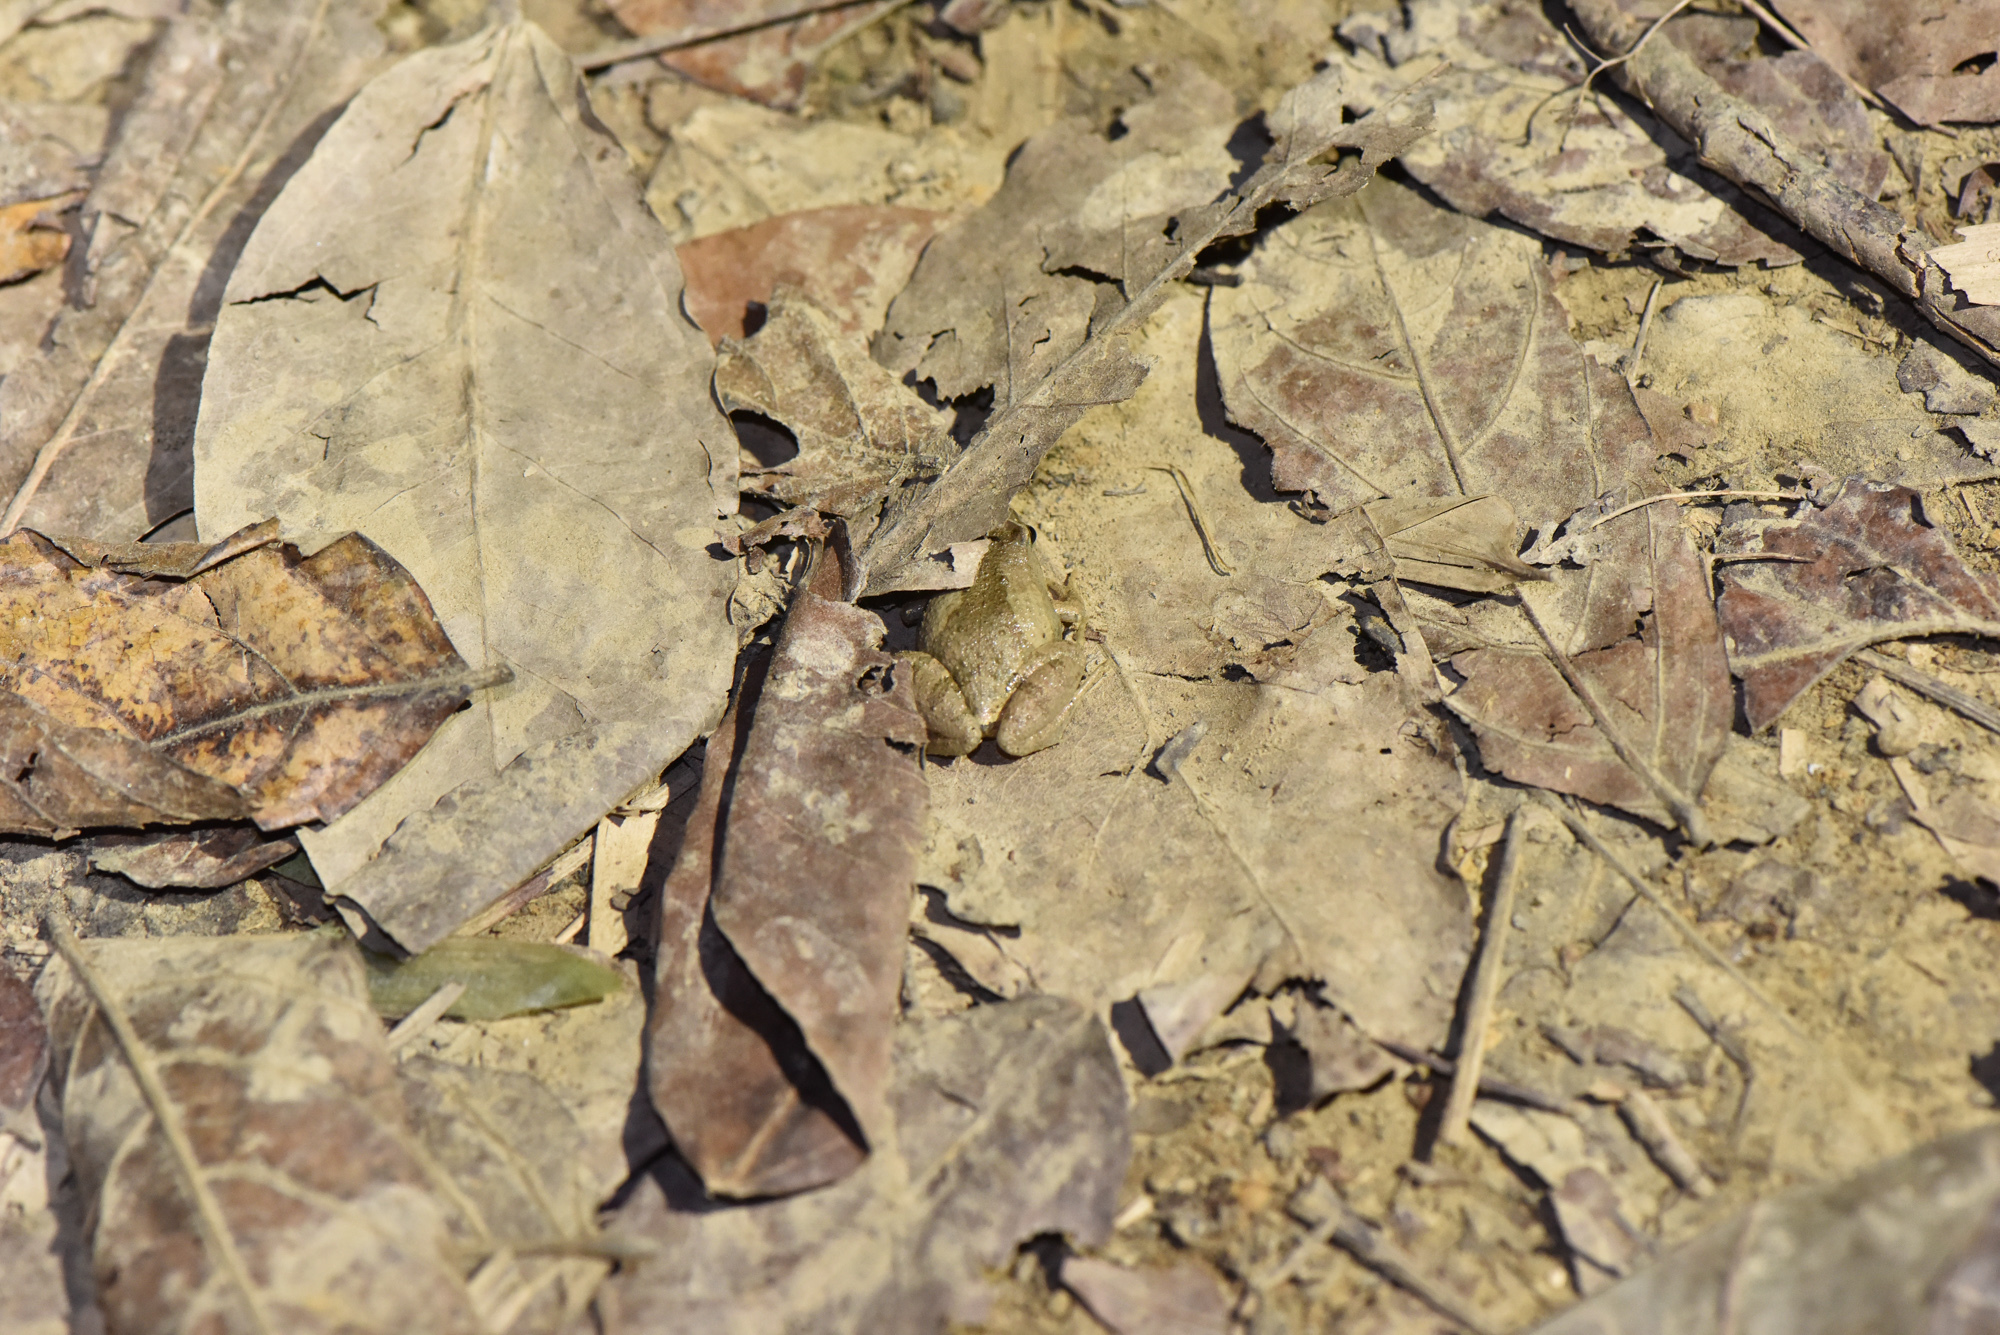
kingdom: Animalia
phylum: Chordata
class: Amphibia
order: Anura
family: Microhylidae
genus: Microhyla
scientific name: Microhyla fissipes
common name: Ornate narrow-mouthed frog
